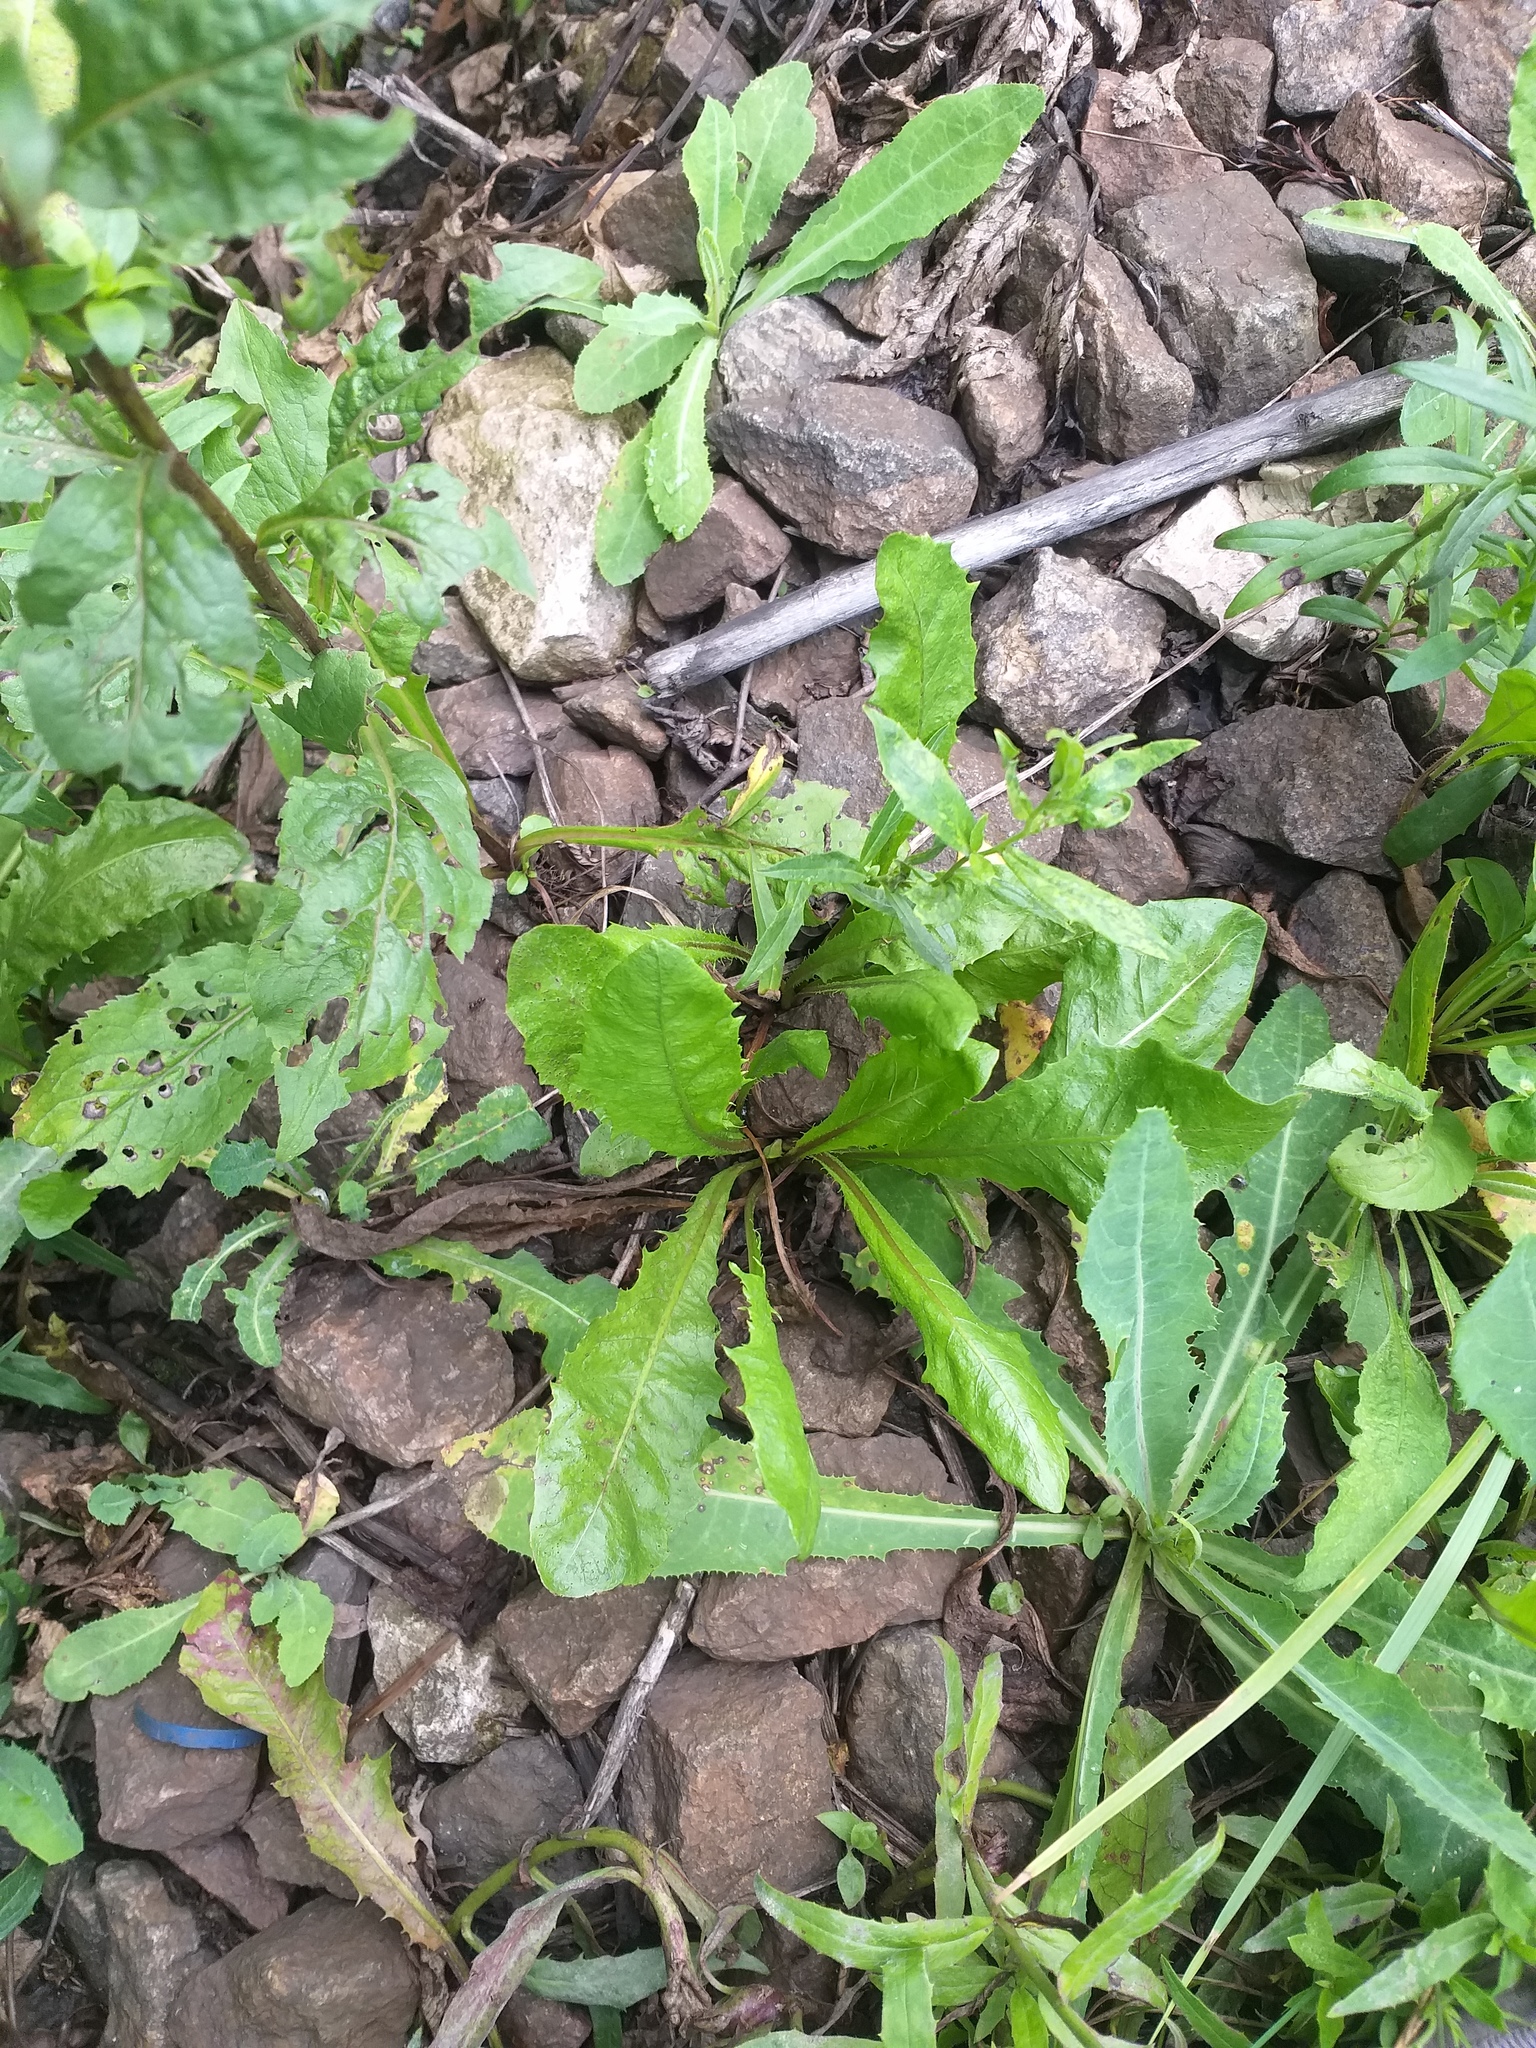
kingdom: Plantae
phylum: Tracheophyta
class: Magnoliopsida
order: Asterales
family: Asteraceae
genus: Taraxacum
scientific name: Taraxacum officinale
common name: Common dandelion
